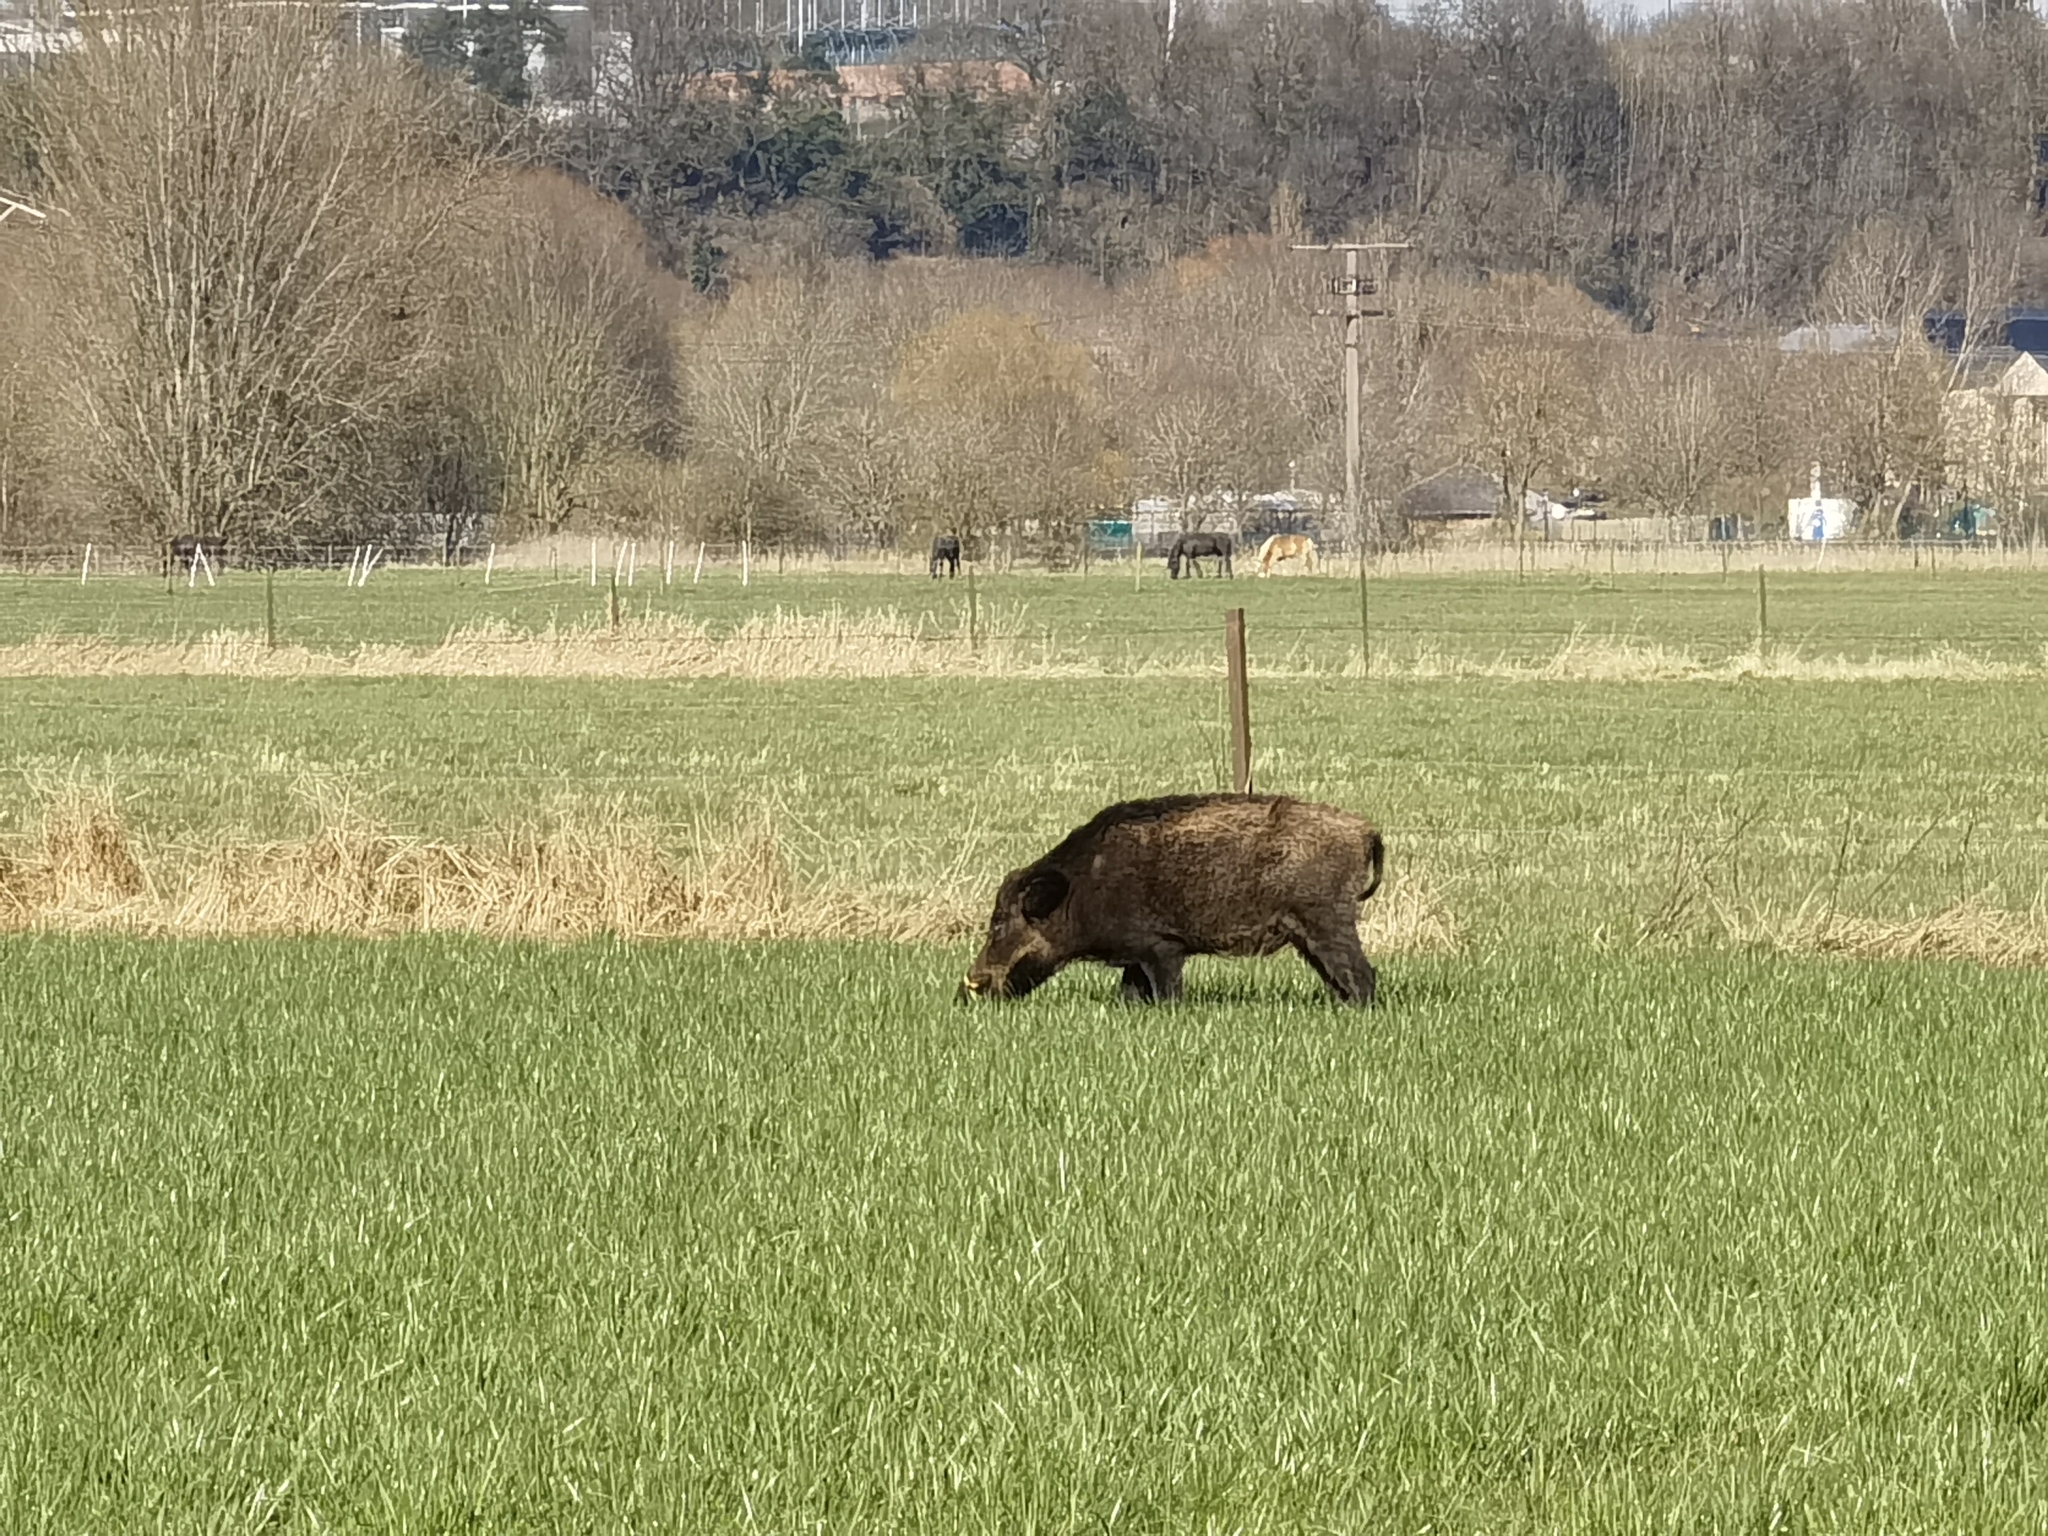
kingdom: Animalia
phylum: Chordata
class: Mammalia
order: Artiodactyla
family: Suidae
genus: Sus
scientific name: Sus scrofa
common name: Wild boar
